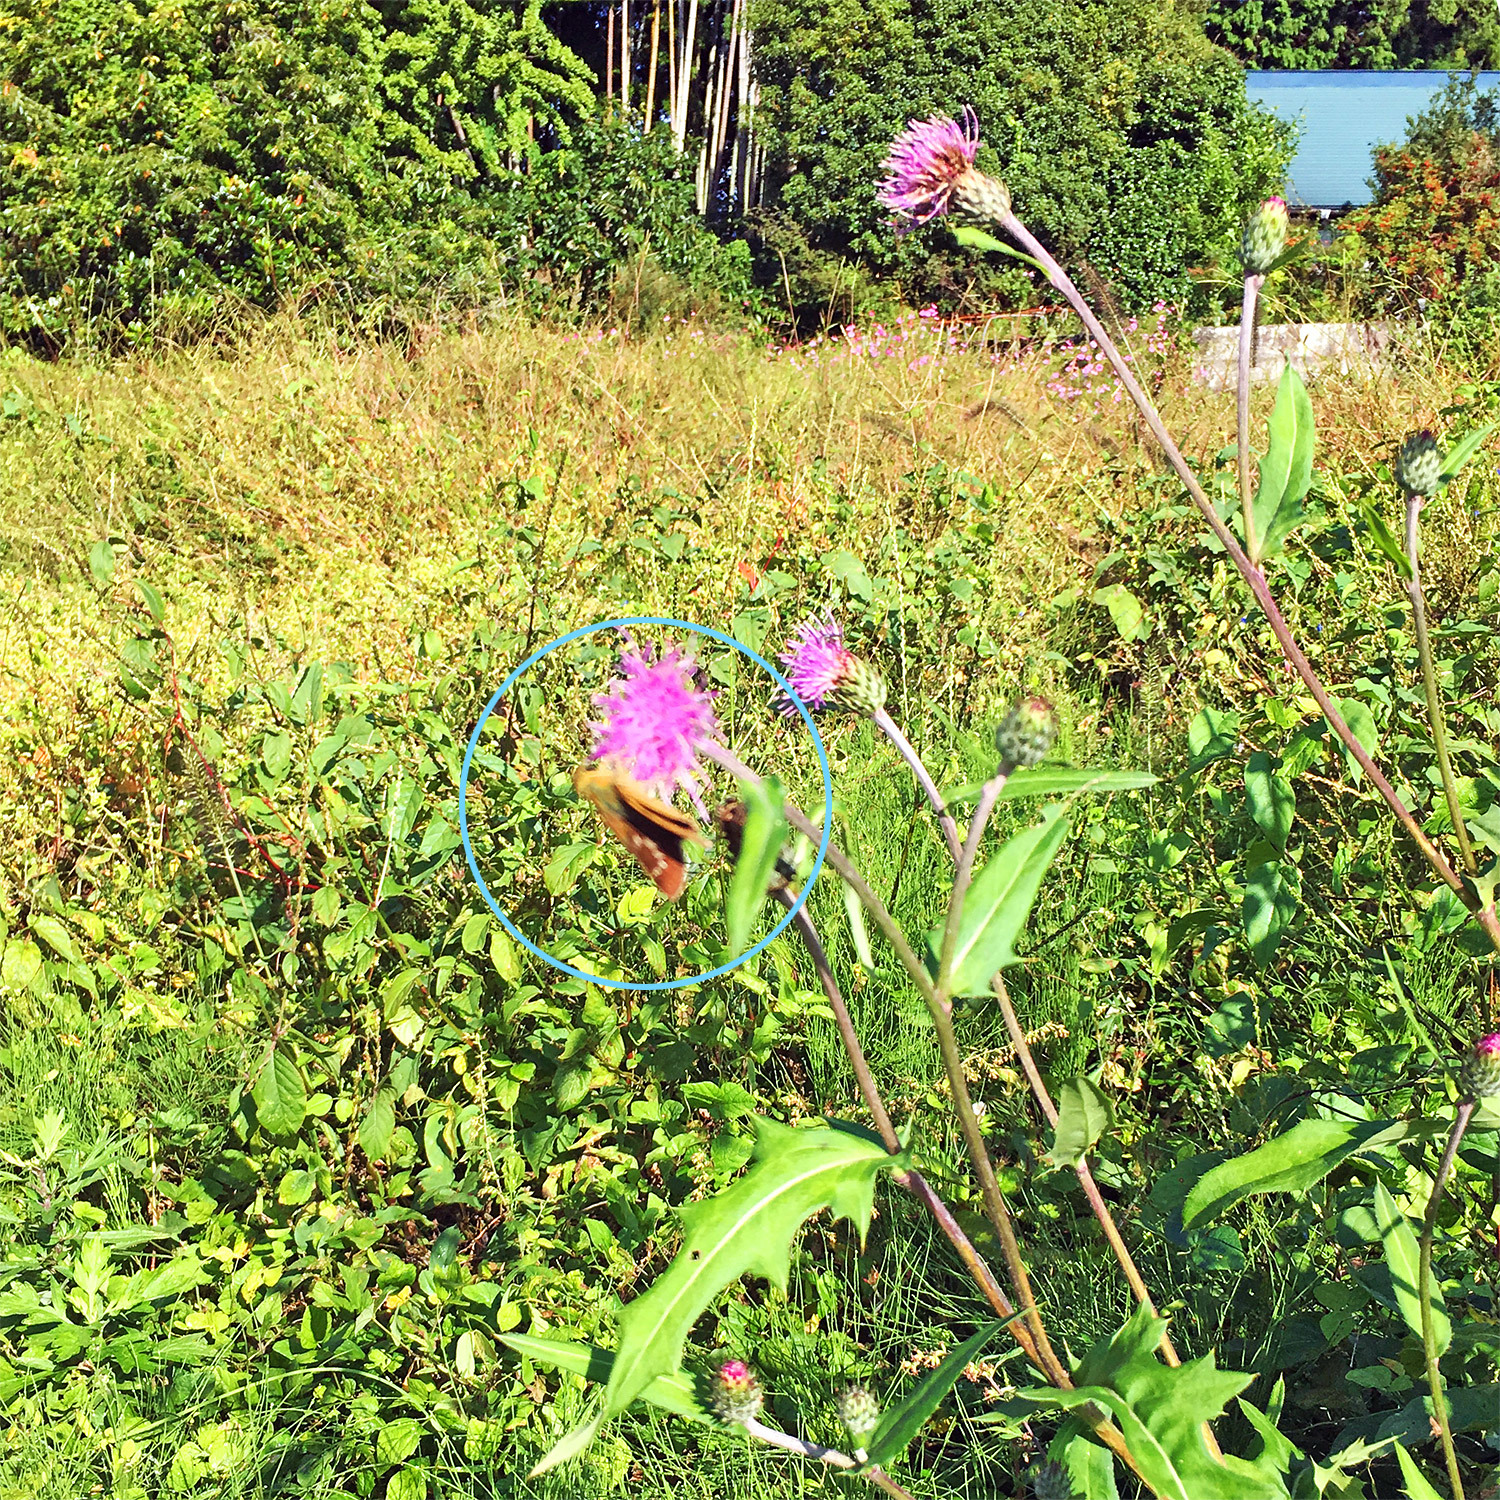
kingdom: Animalia
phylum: Arthropoda
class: Insecta
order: Lepidoptera
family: Hesperiidae
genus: Parnara
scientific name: Parnara guttatus
